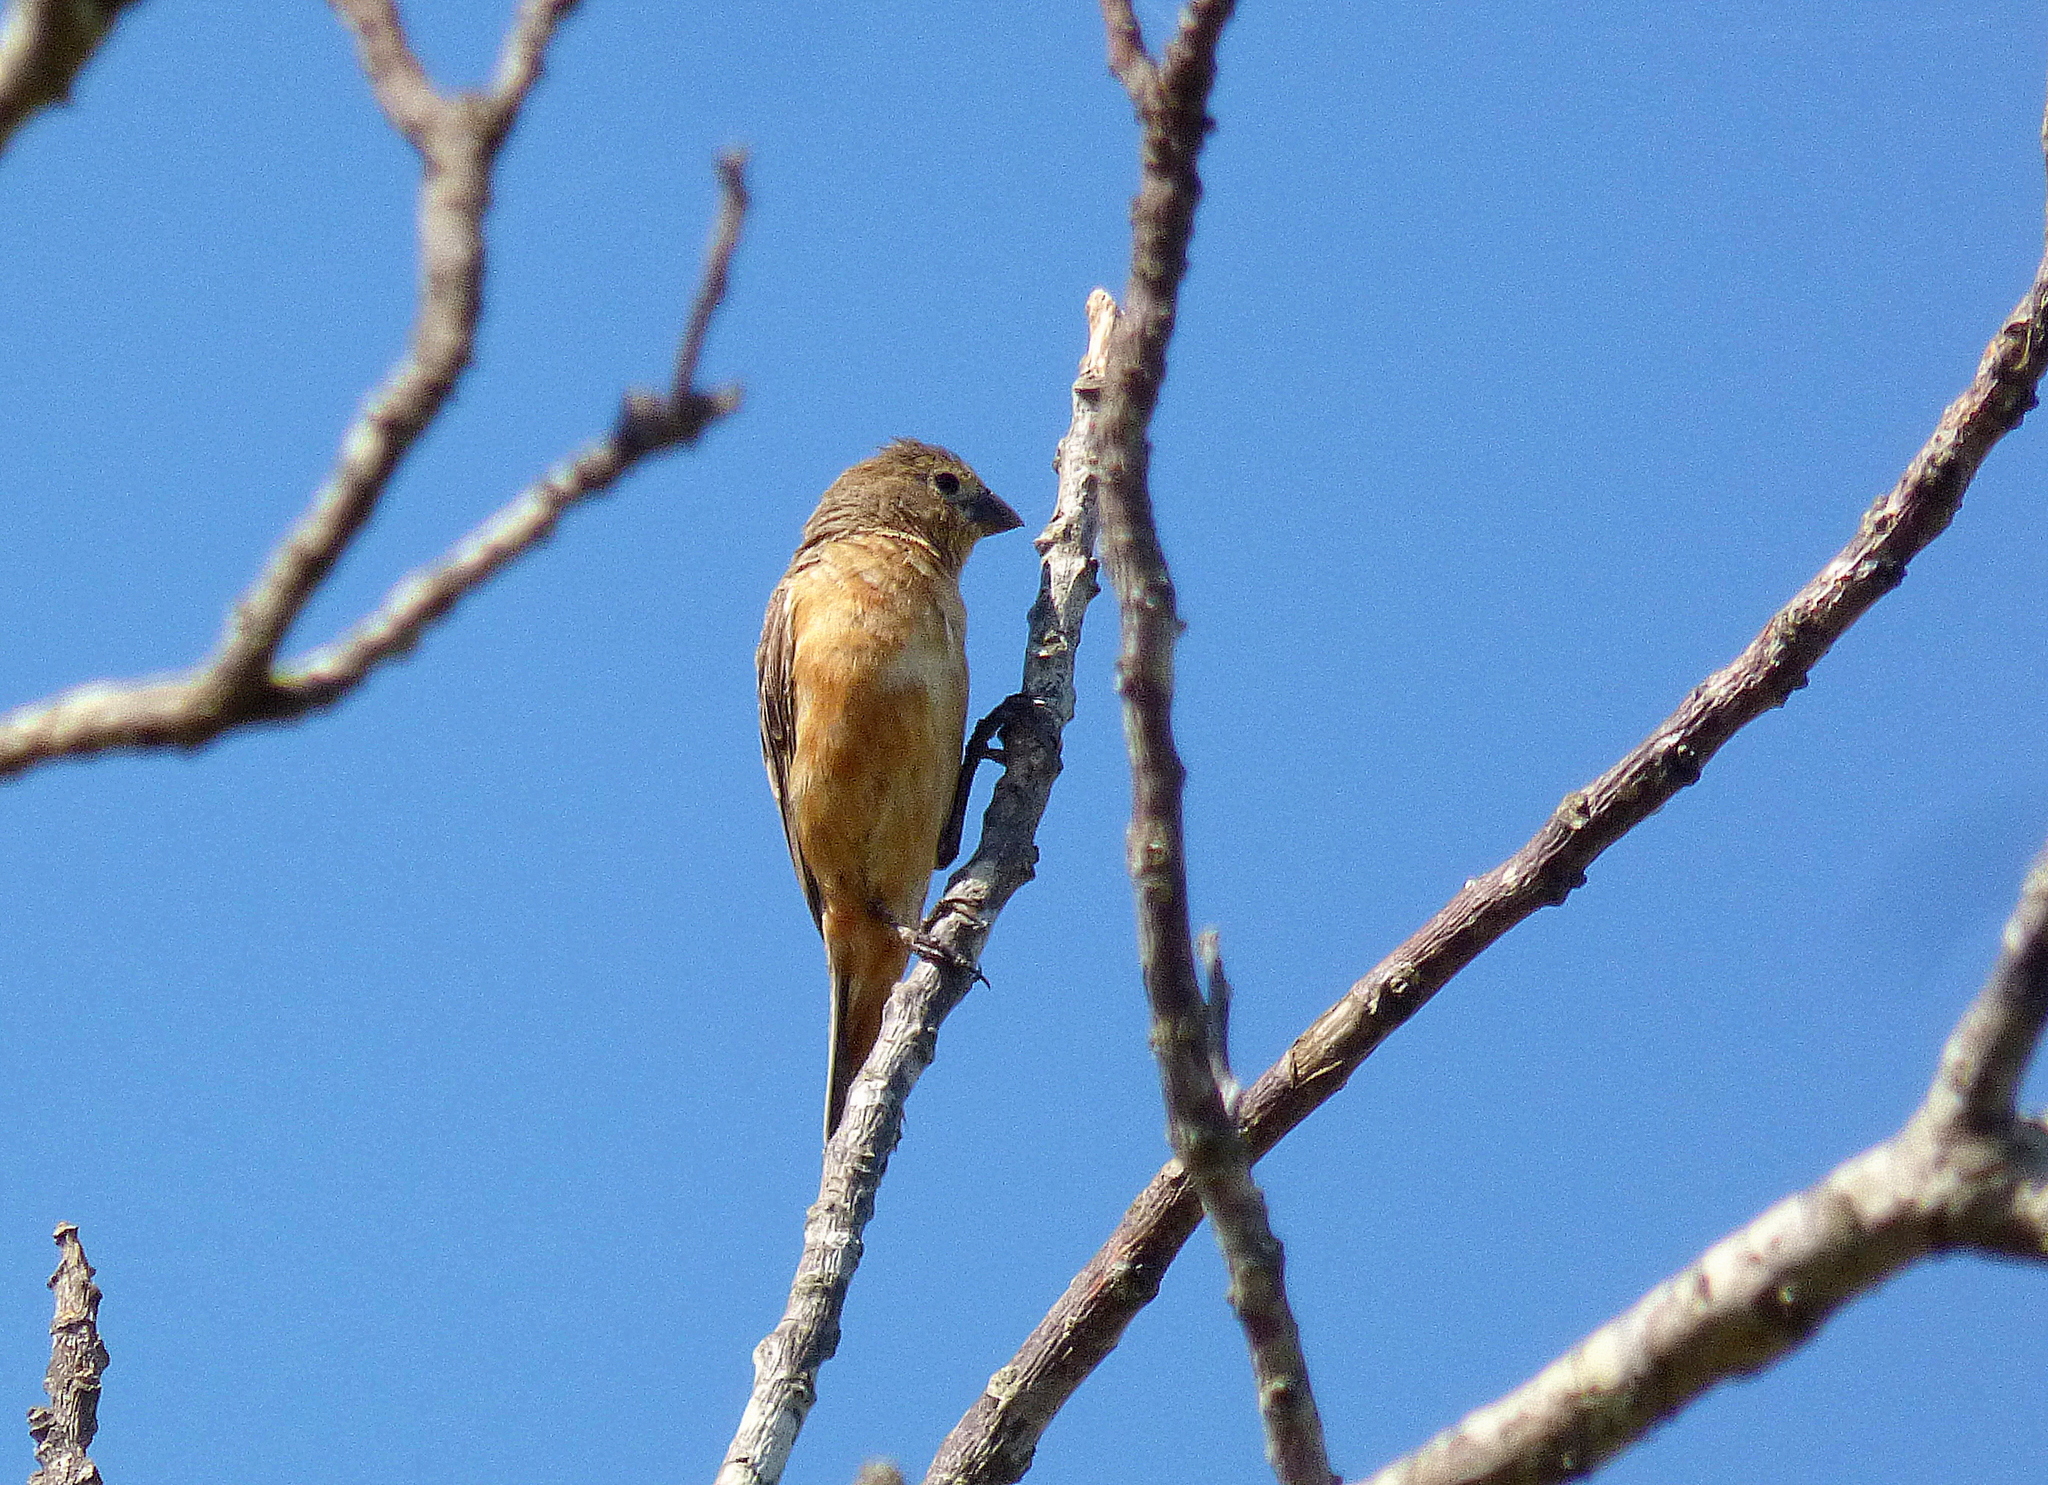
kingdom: Animalia
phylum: Chordata
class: Aves
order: Passeriformes
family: Thraupidae
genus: Sporophila
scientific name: Sporophila ruficollis
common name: Dark-throated seedeater
